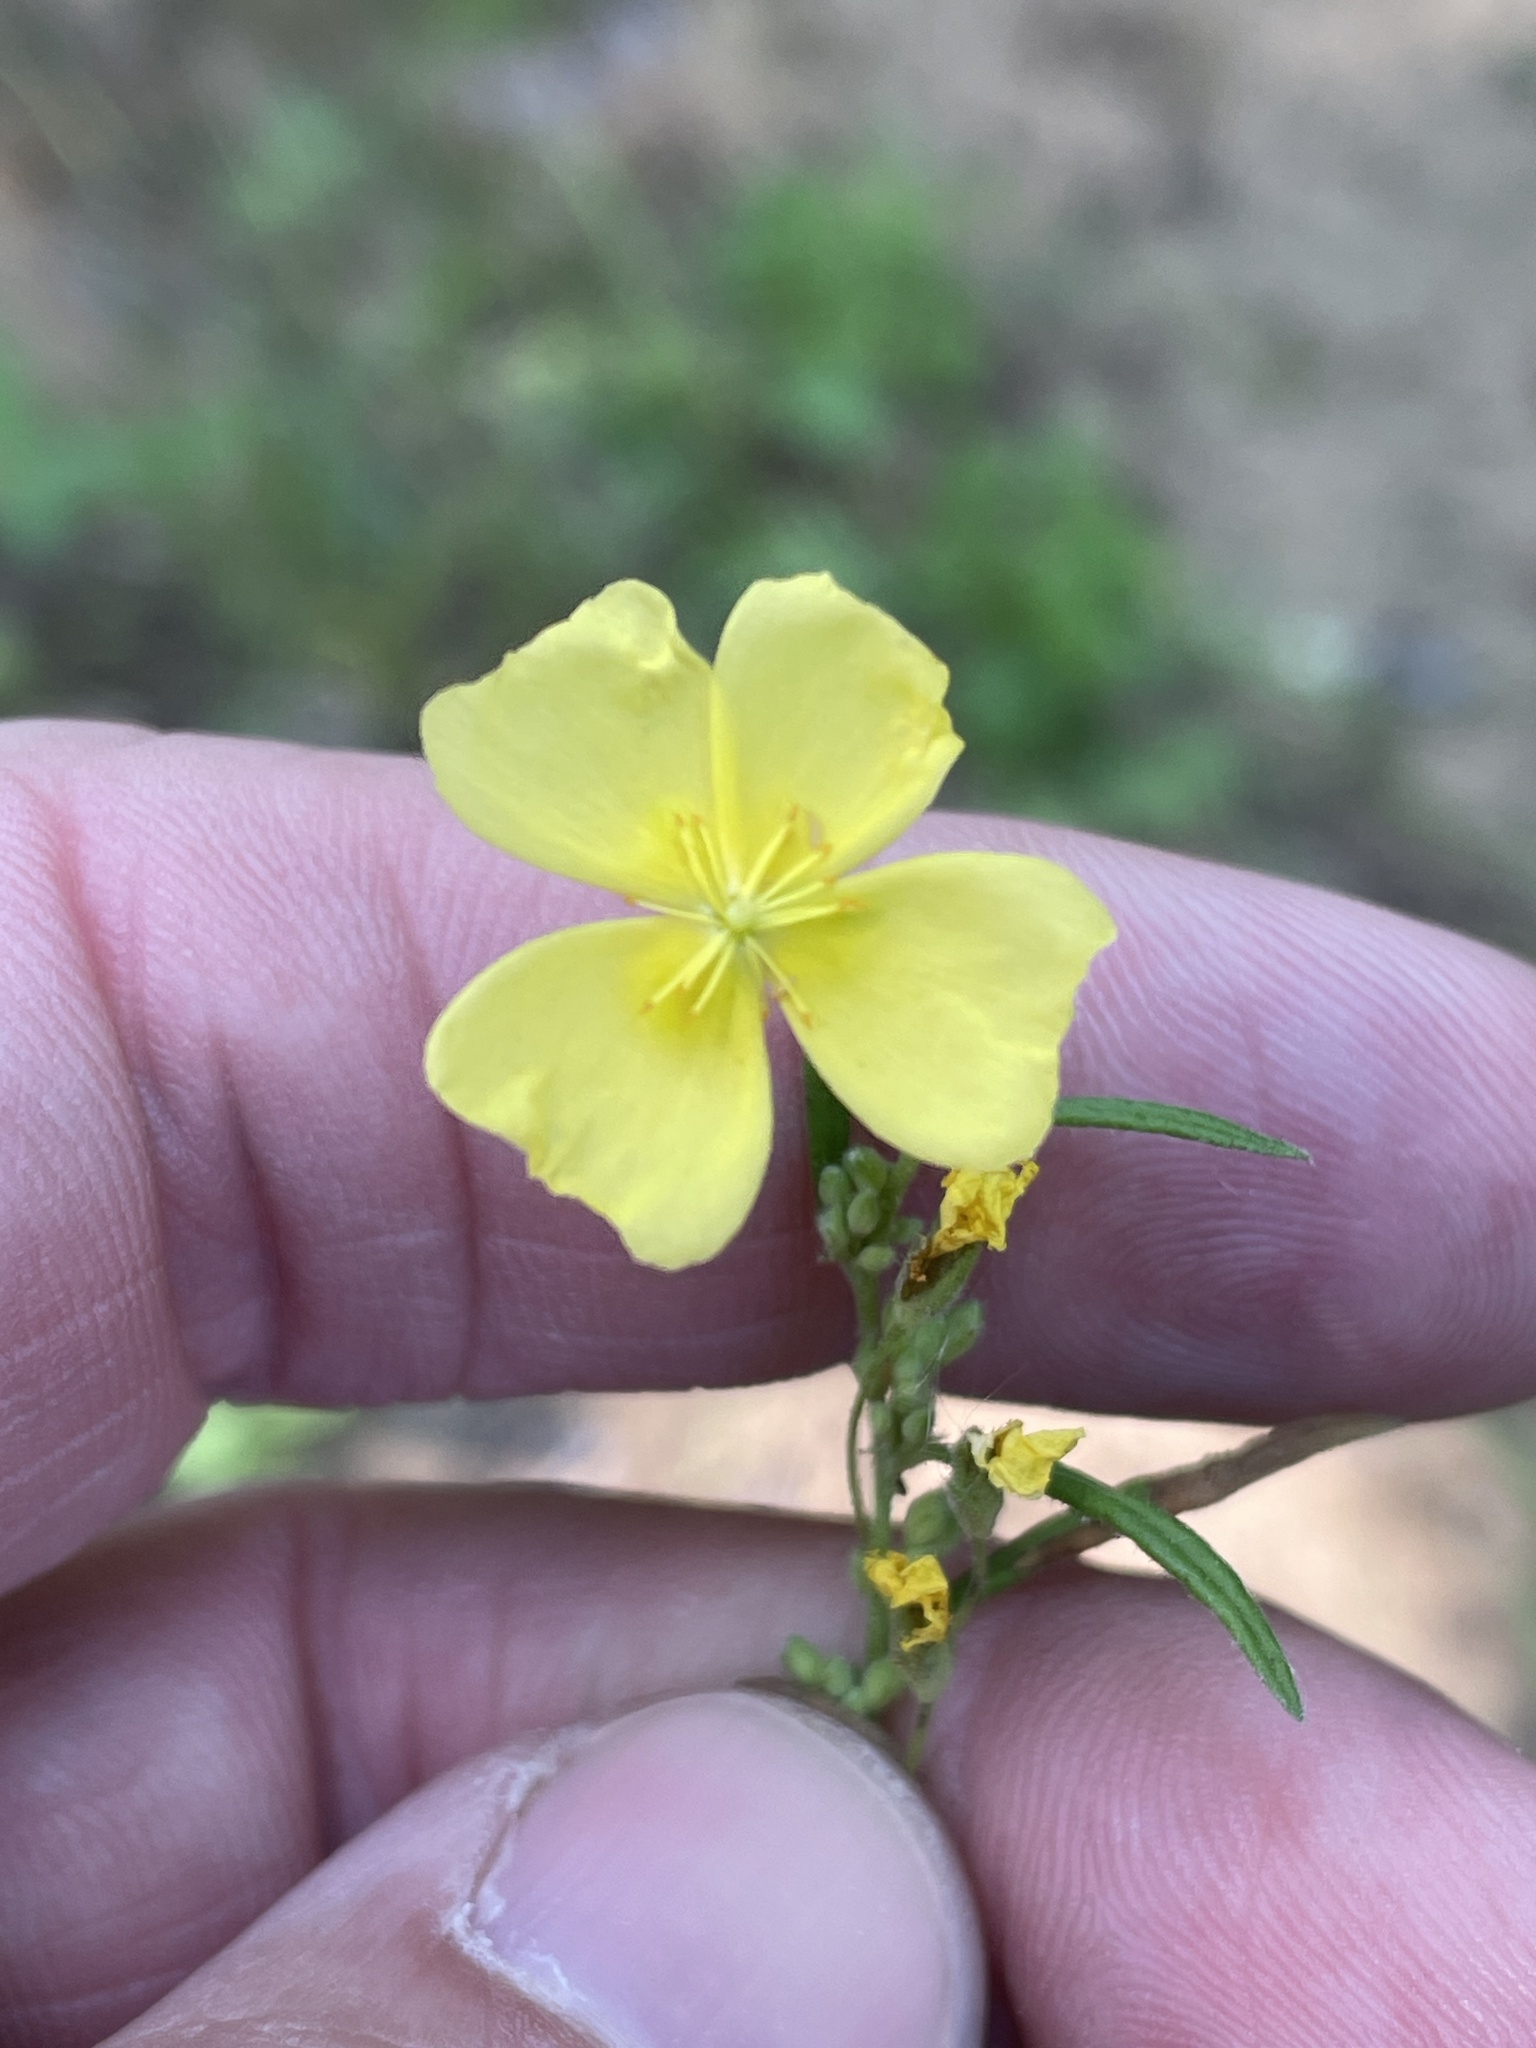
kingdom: Plantae
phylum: Tracheophyta
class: Magnoliopsida
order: Malvales
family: Cistaceae
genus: Crocanthemum
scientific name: Crocanthemum rosmarinifolium
